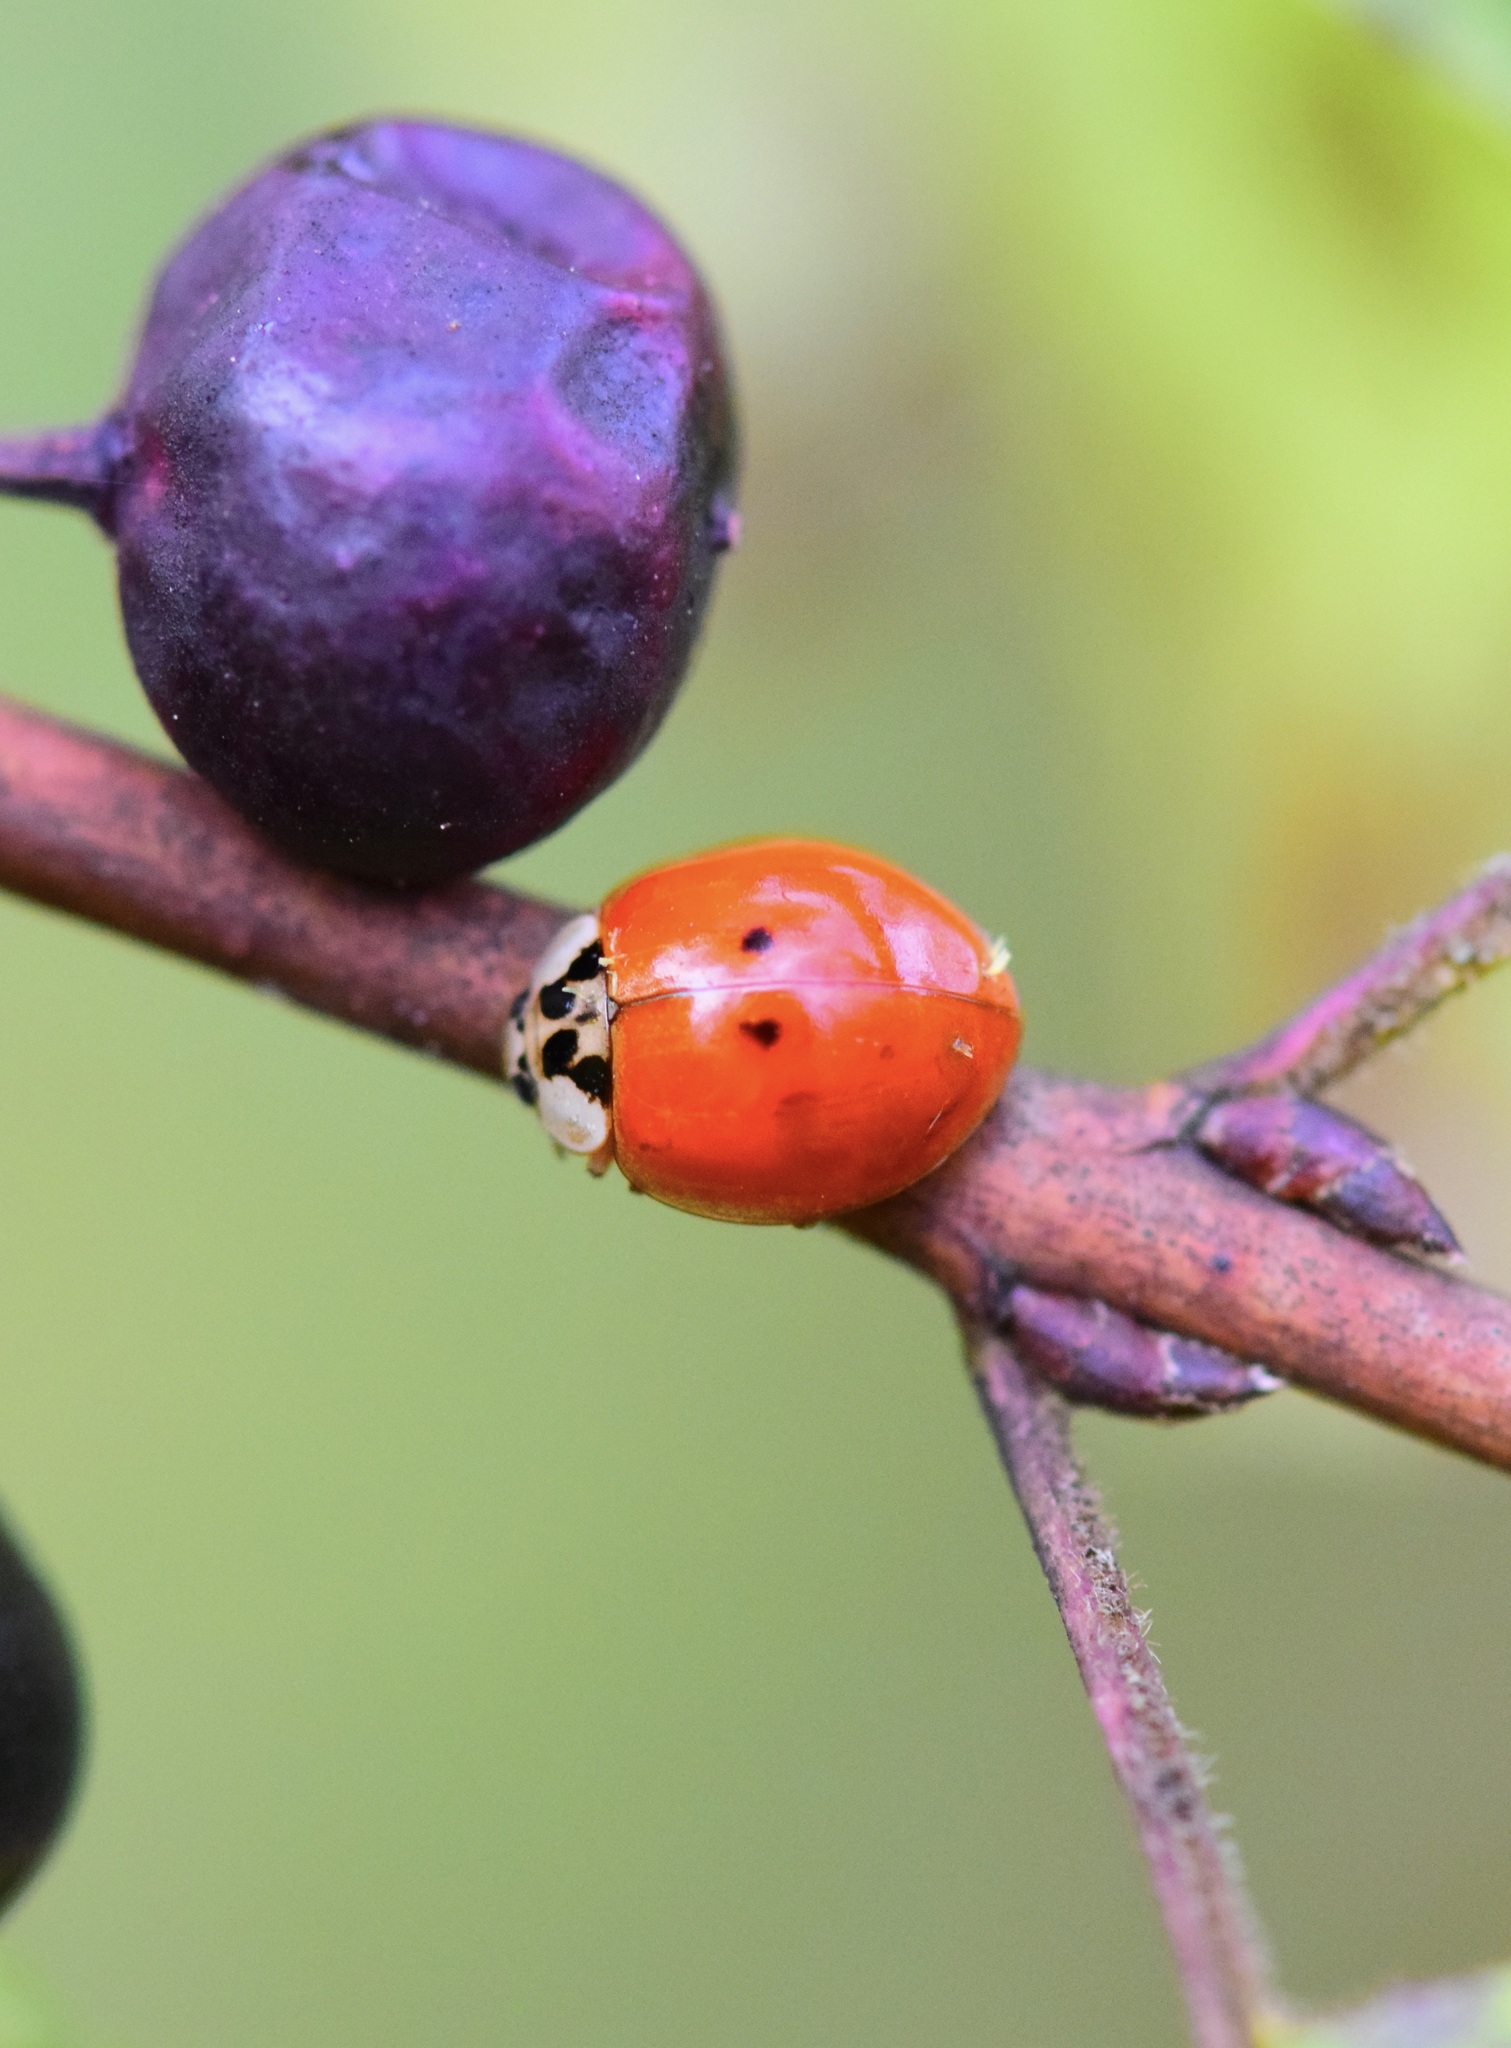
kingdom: Animalia
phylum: Arthropoda
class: Insecta
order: Coleoptera
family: Coccinellidae
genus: Harmonia
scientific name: Harmonia axyridis
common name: Harlequin ladybird
